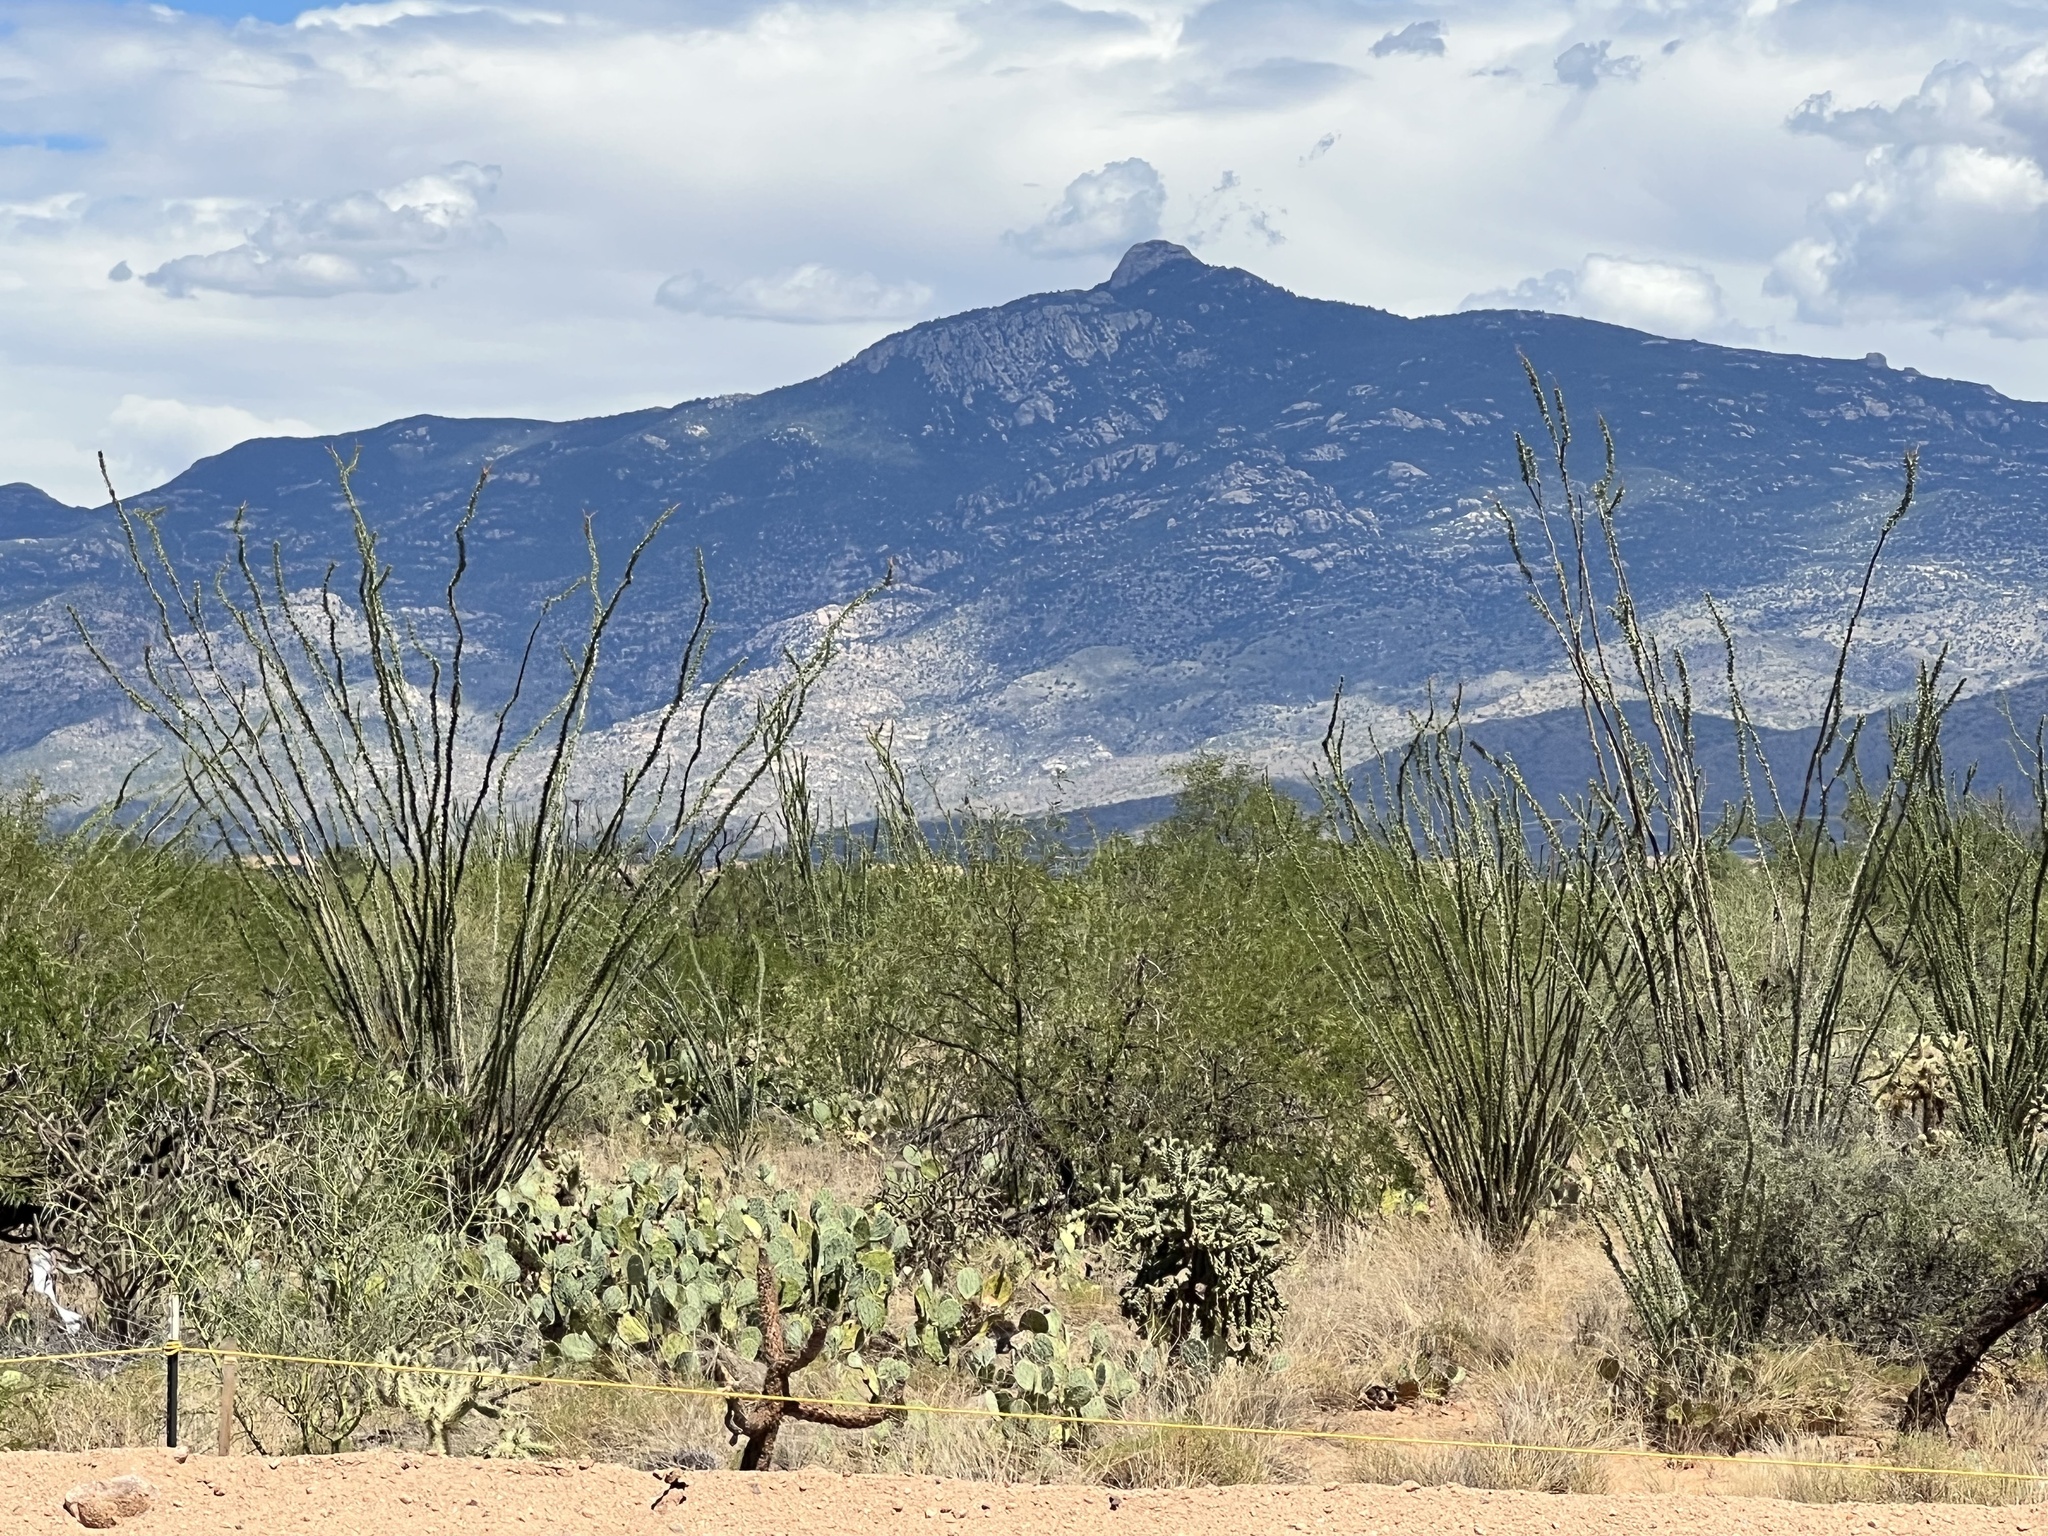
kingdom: Plantae
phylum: Tracheophyta
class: Magnoliopsida
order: Ericales
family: Fouquieriaceae
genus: Fouquieria
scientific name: Fouquieria splendens
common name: Vine-cactus
